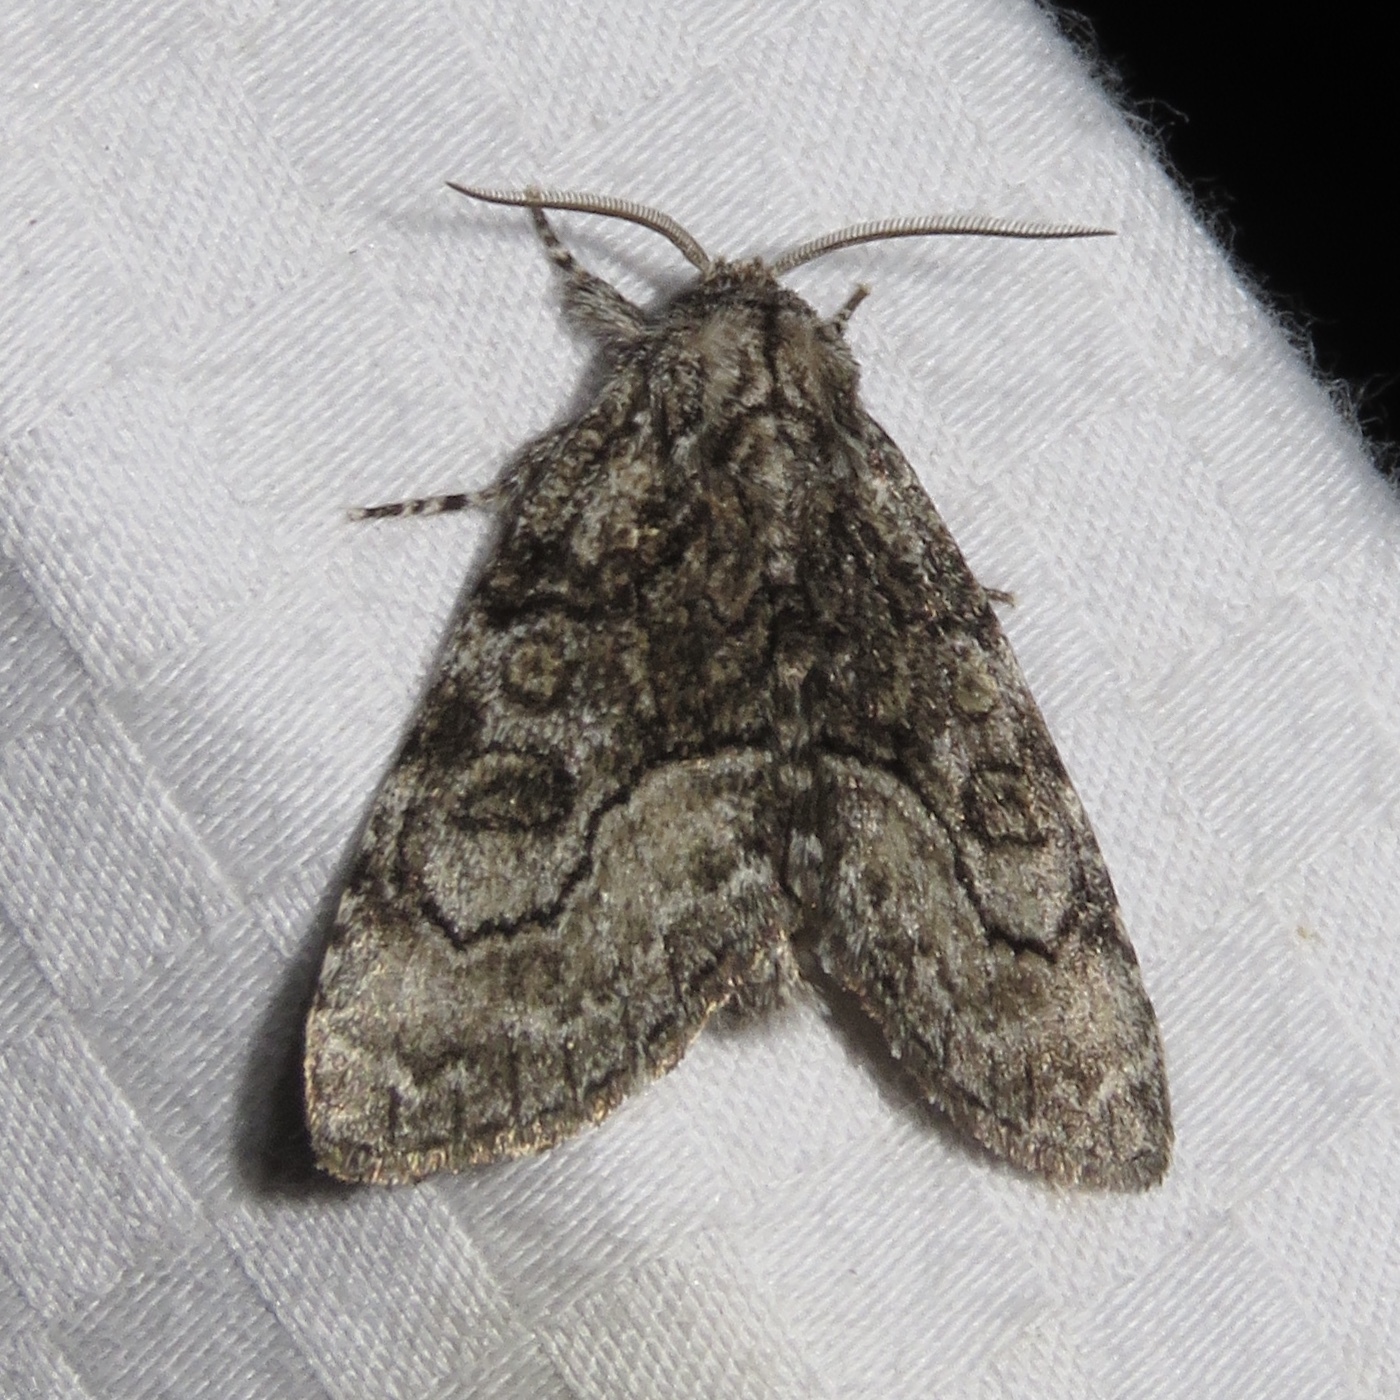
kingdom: Animalia
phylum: Arthropoda
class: Insecta
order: Lepidoptera
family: Noctuidae
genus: Raphia
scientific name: Raphia frater
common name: Brother
